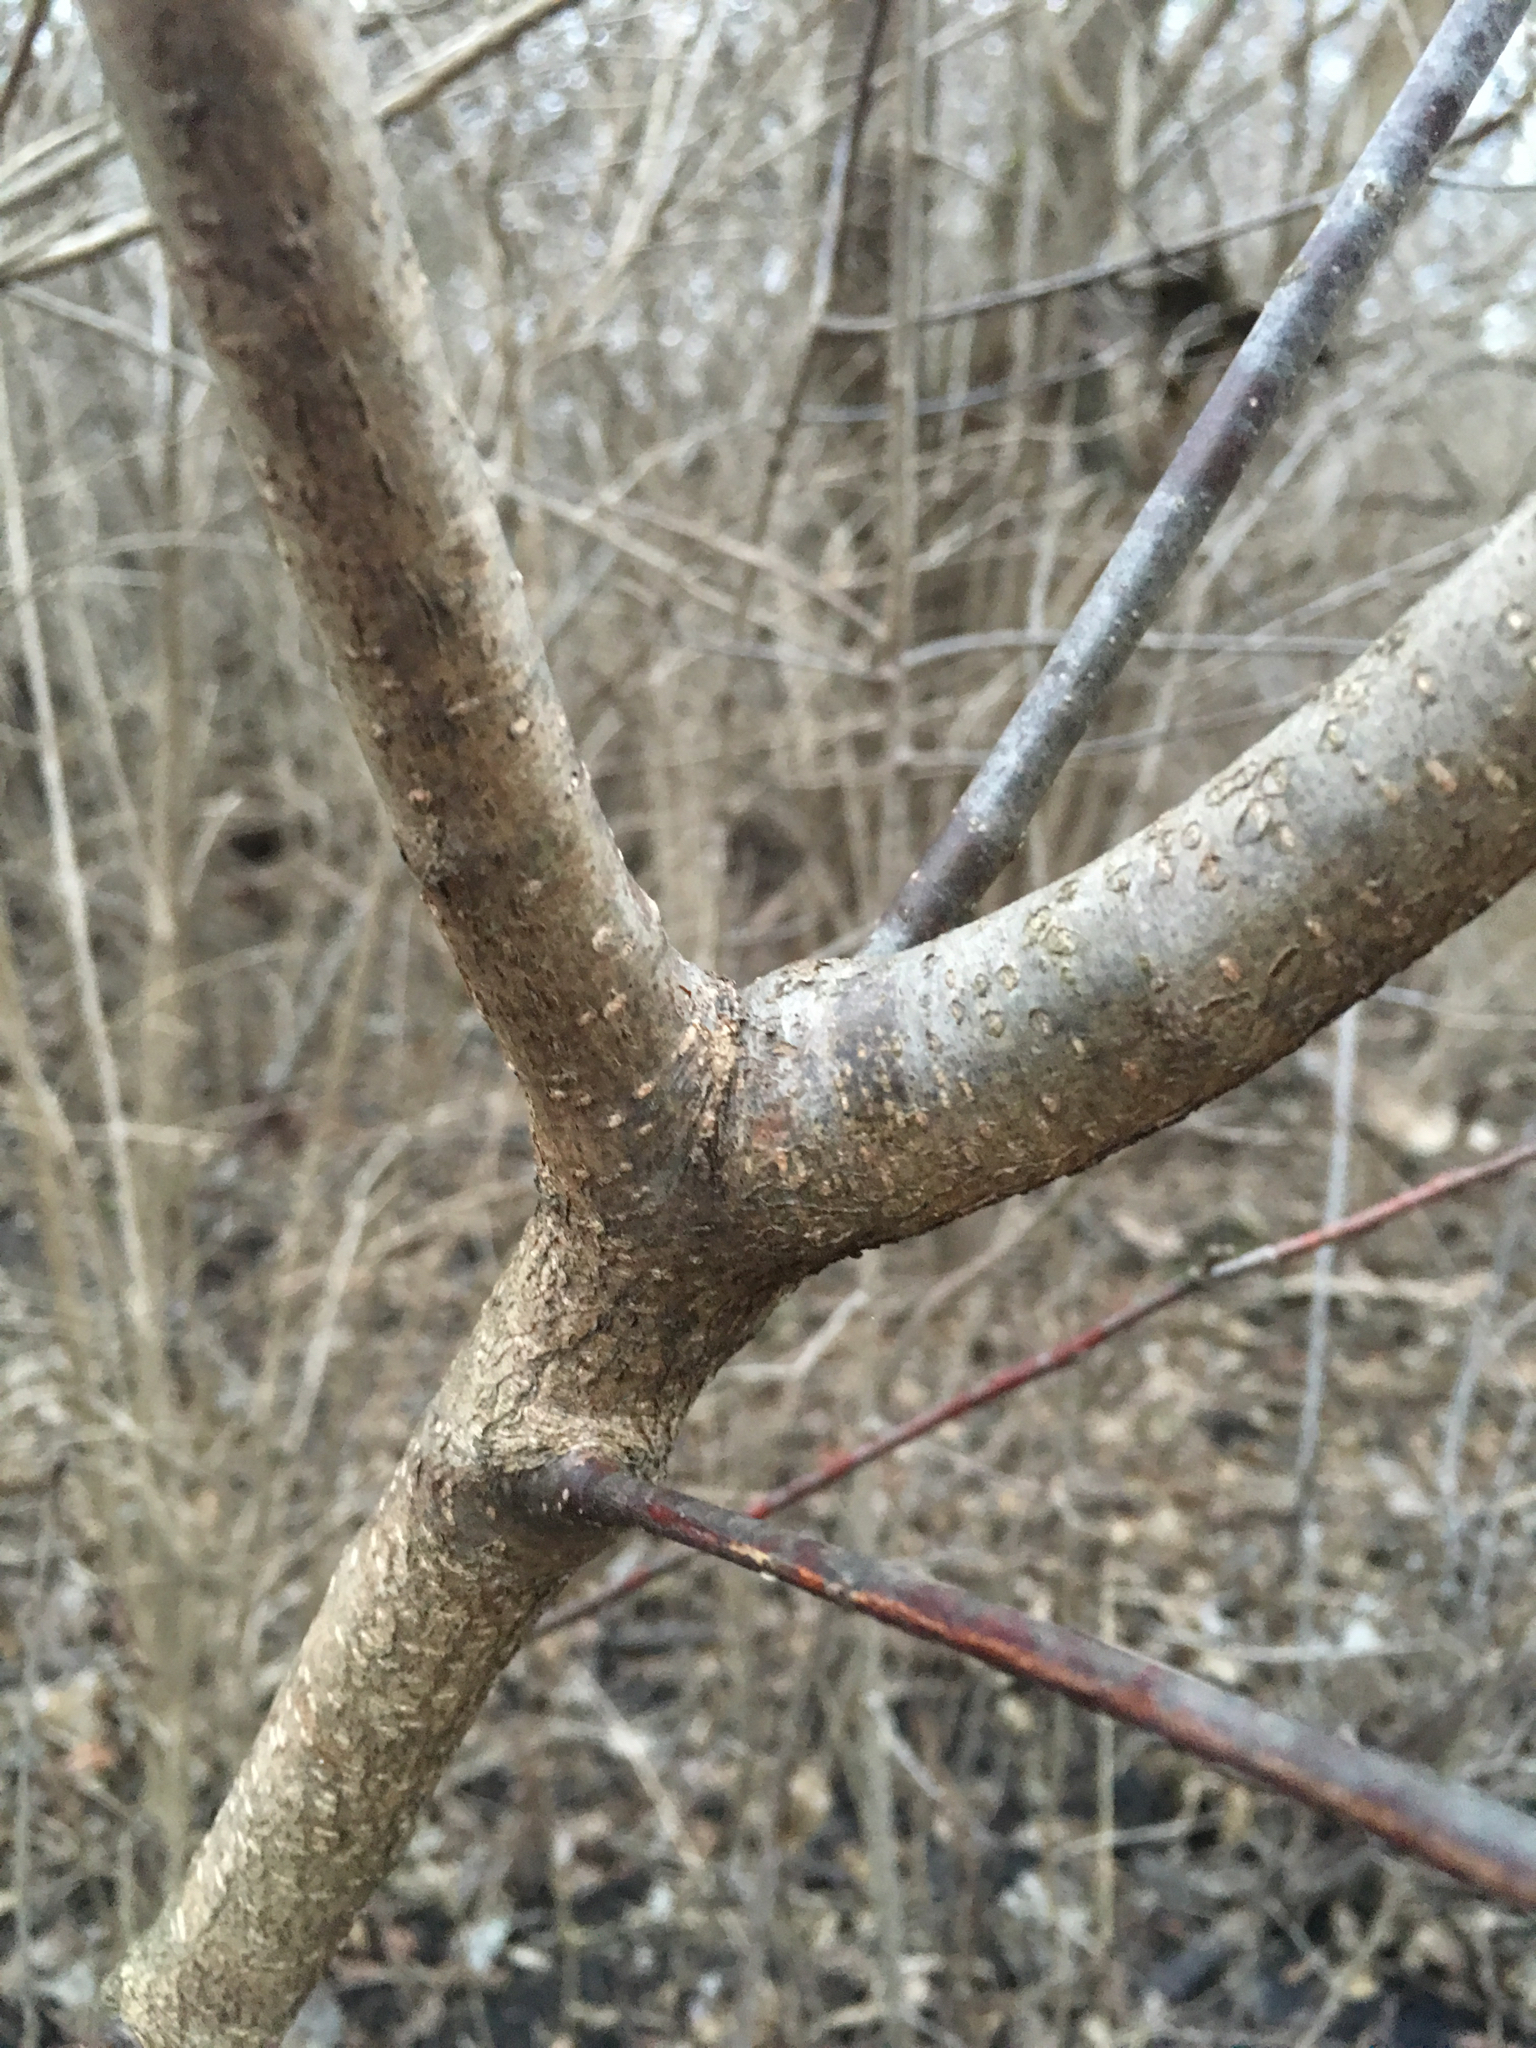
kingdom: Plantae
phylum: Tracheophyta
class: Magnoliopsida
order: Sapindales
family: Rutaceae
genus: Ptelea
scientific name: Ptelea trifoliata
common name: Common hop-tree
